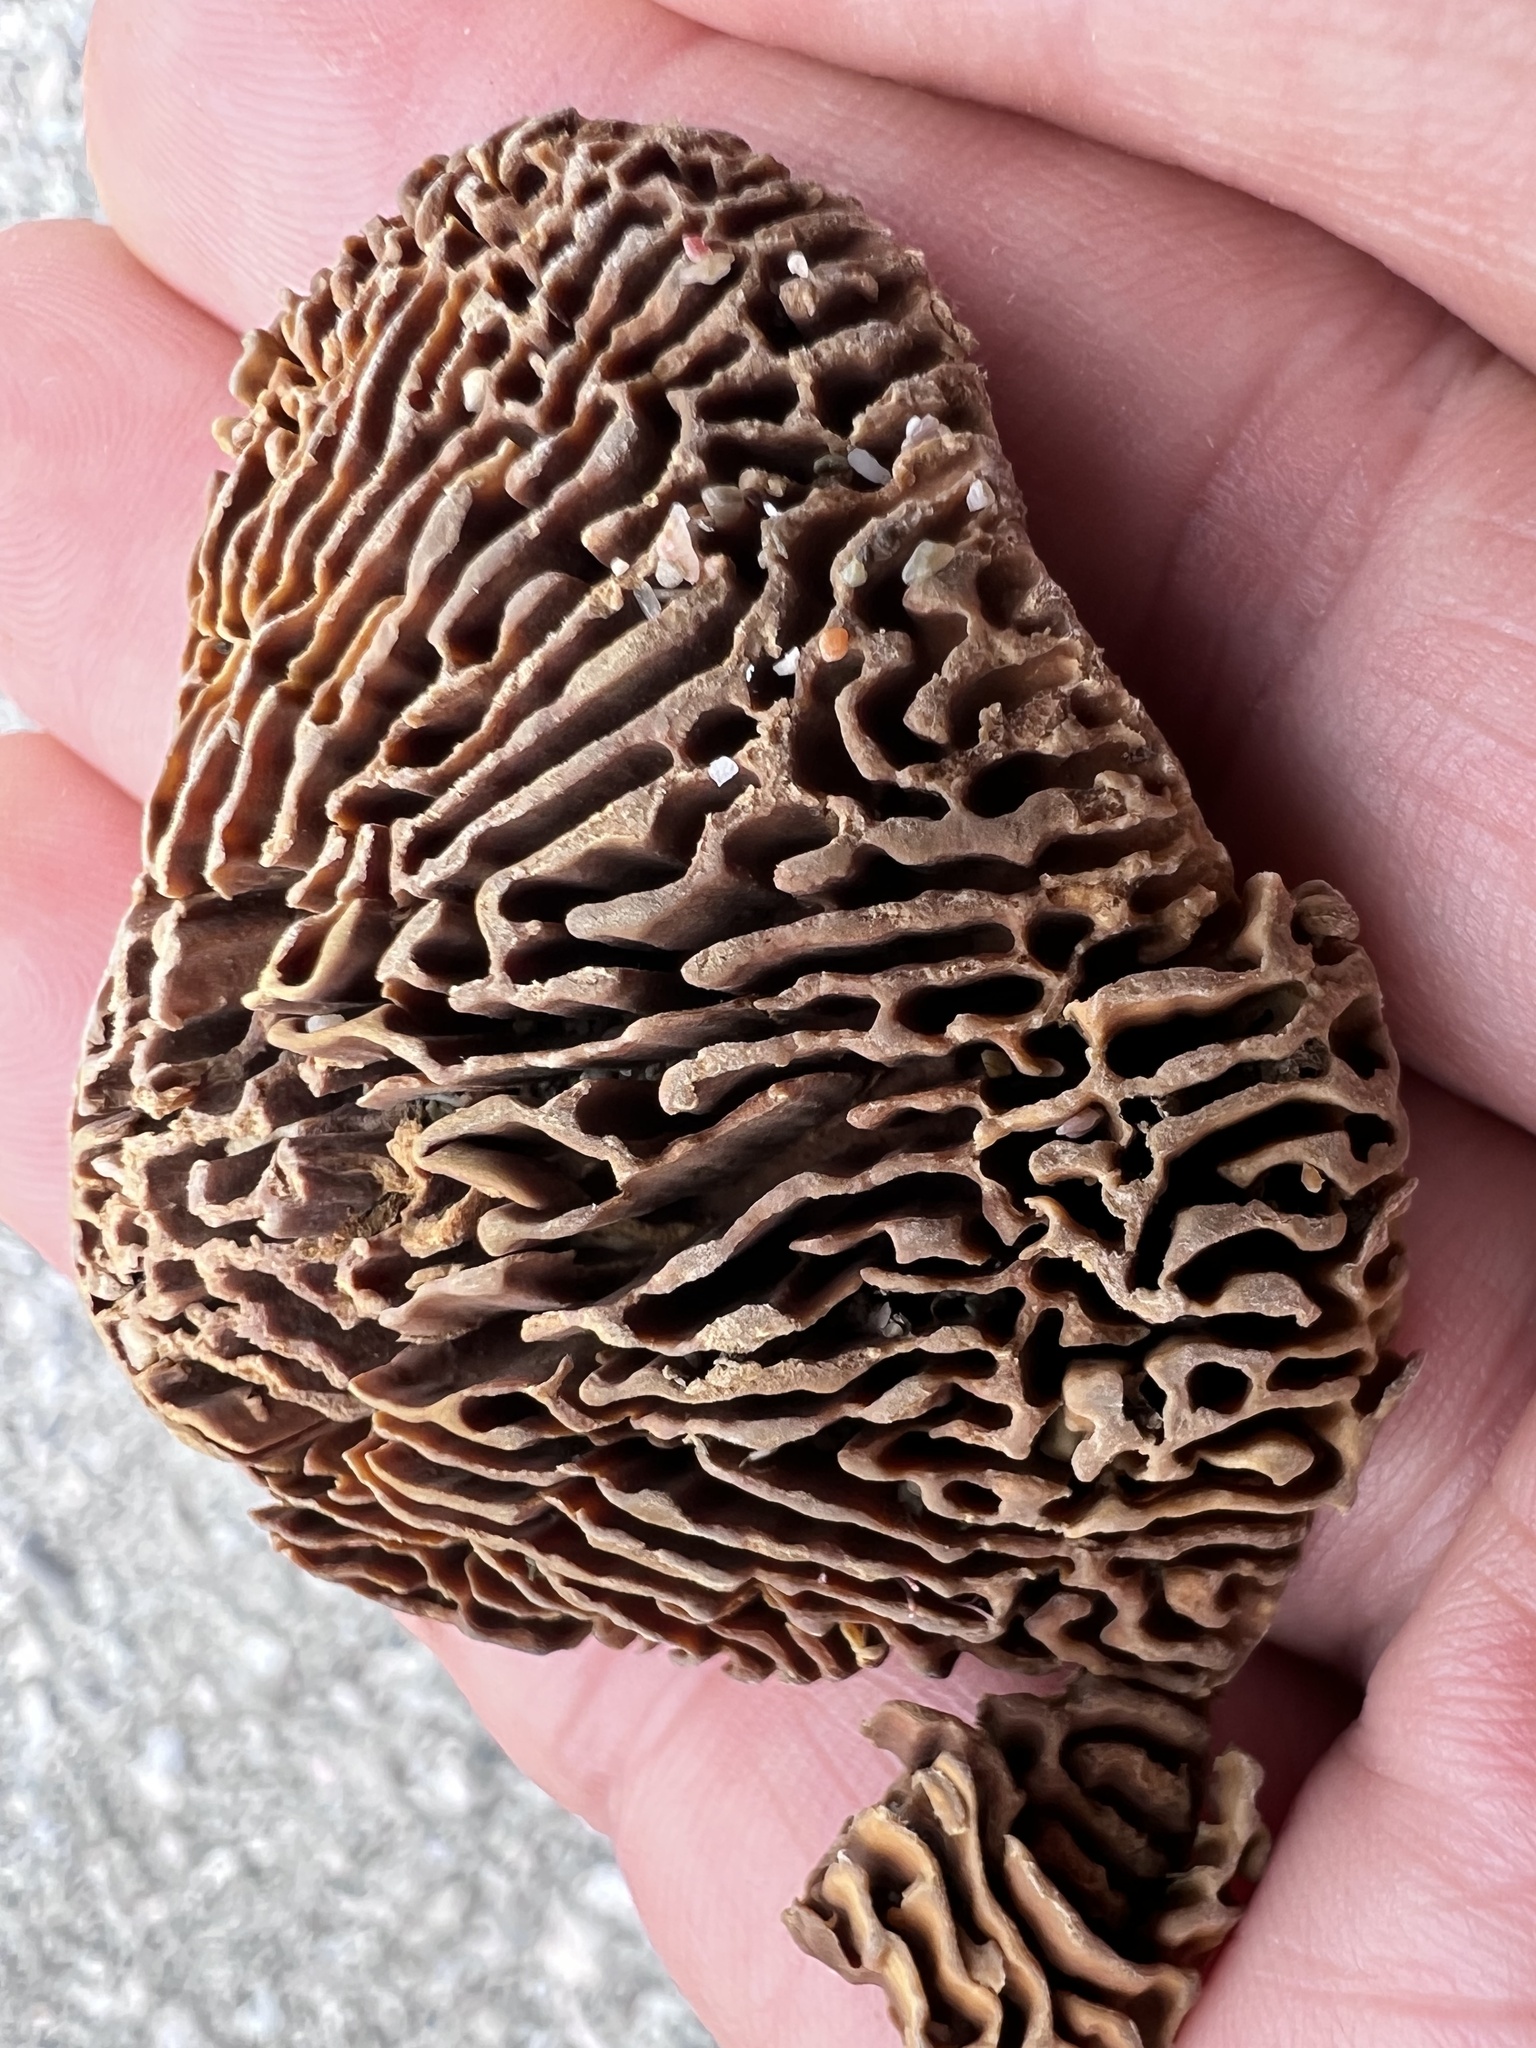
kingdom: Fungi
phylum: Basidiomycota
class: Agaricomycetes
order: Polyporales
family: Polyporaceae
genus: Trametes
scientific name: Trametes tenuis
